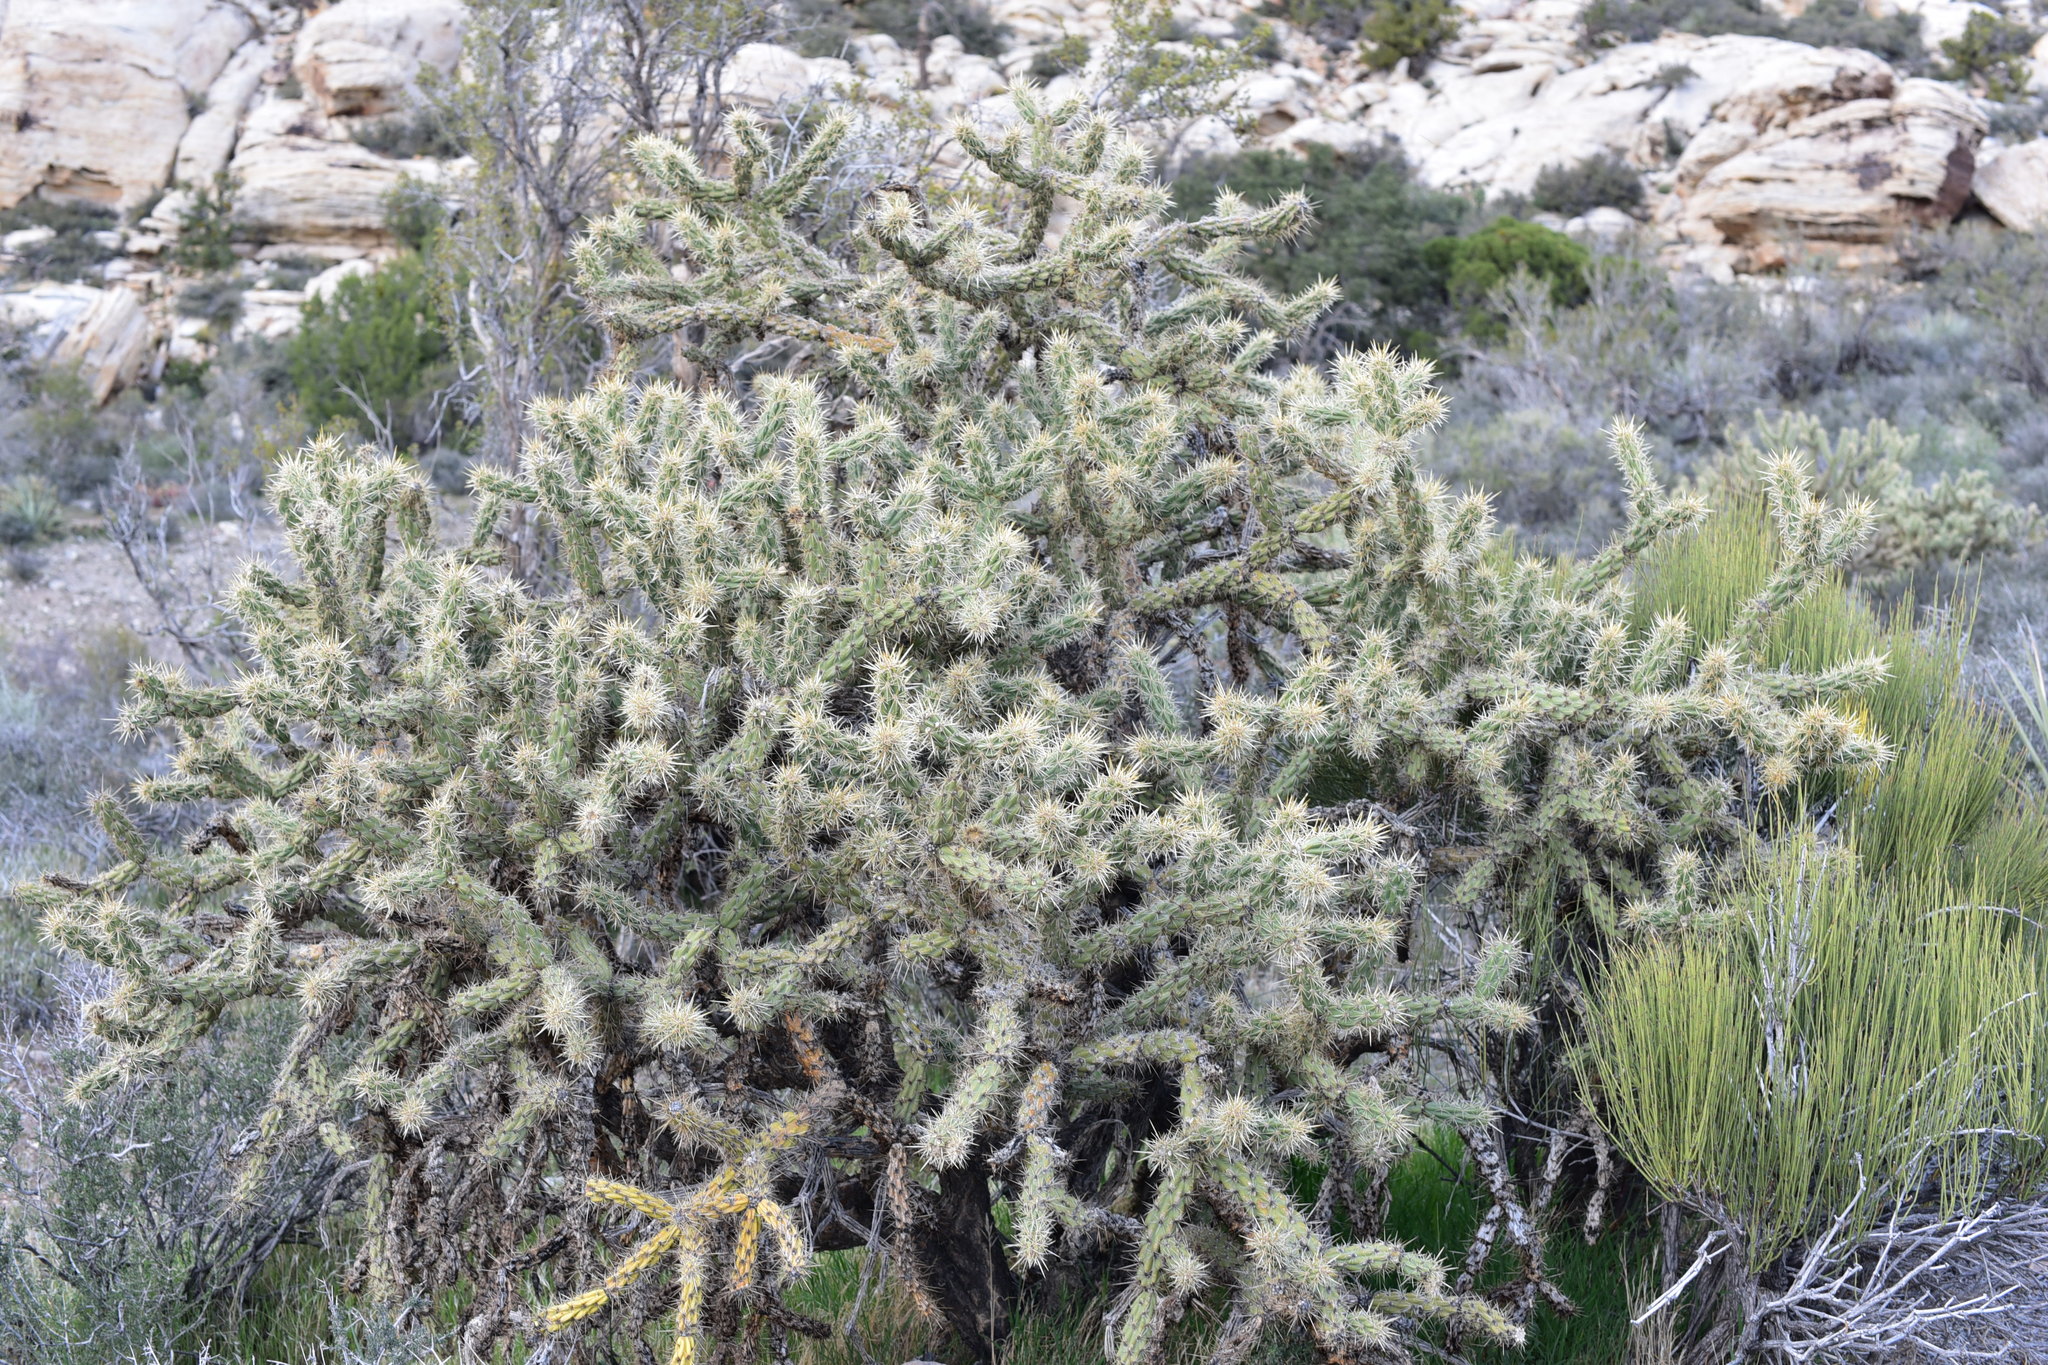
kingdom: Plantae
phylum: Tracheophyta
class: Magnoliopsida
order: Caryophyllales
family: Cactaceae
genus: Cylindropuntia
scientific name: Cylindropuntia acanthocarpa
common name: Buckhorn cholla
